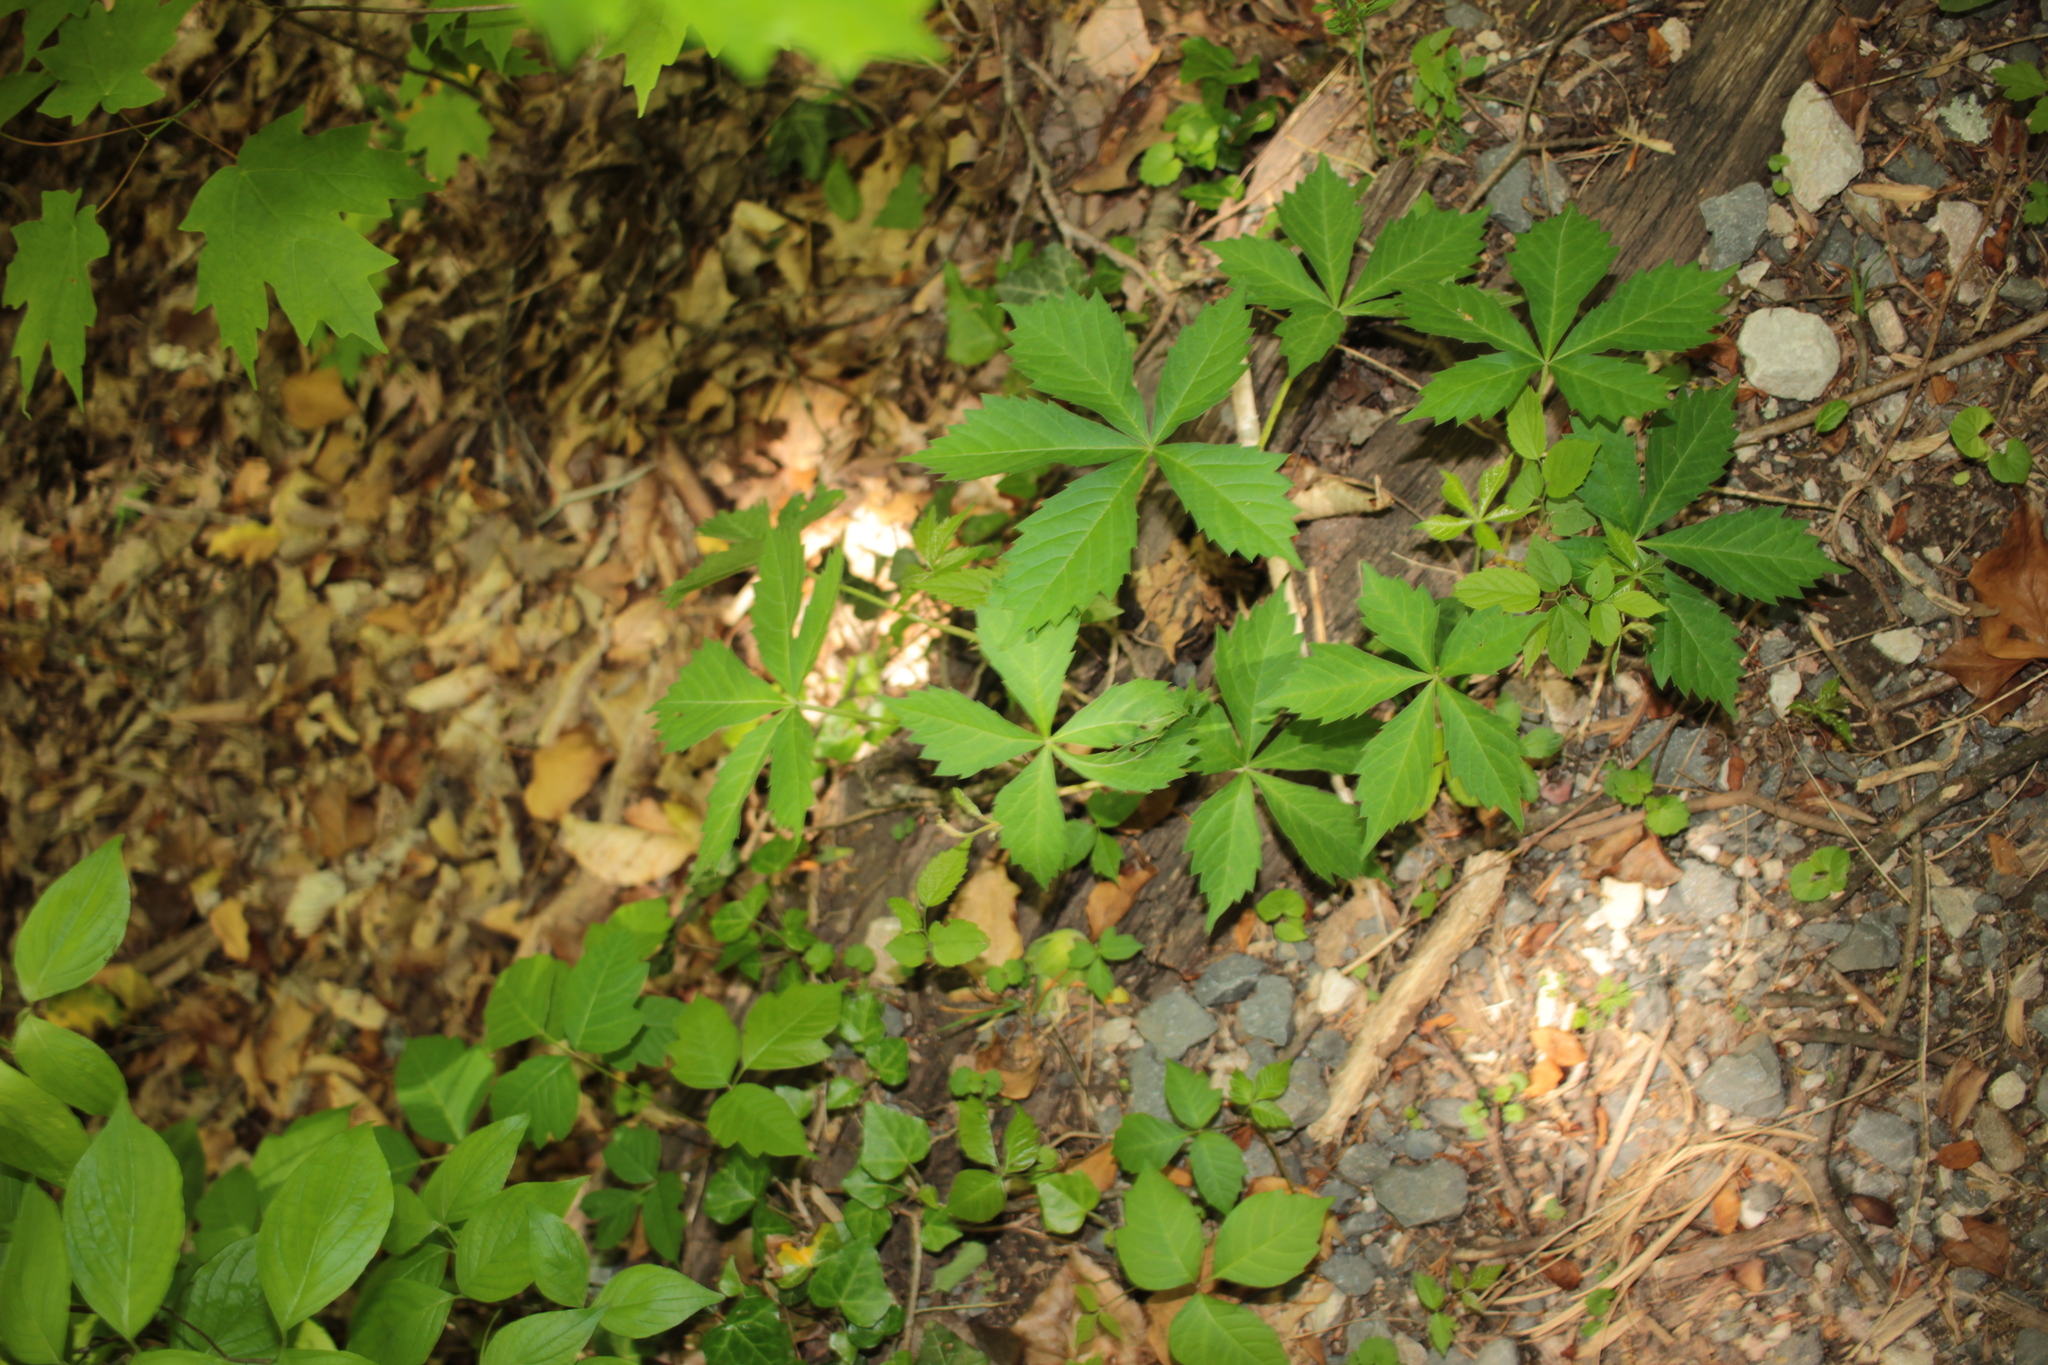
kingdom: Plantae
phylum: Tracheophyta
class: Magnoliopsida
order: Vitales
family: Vitaceae
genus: Parthenocissus
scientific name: Parthenocissus quinquefolia
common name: Virginia-creeper
